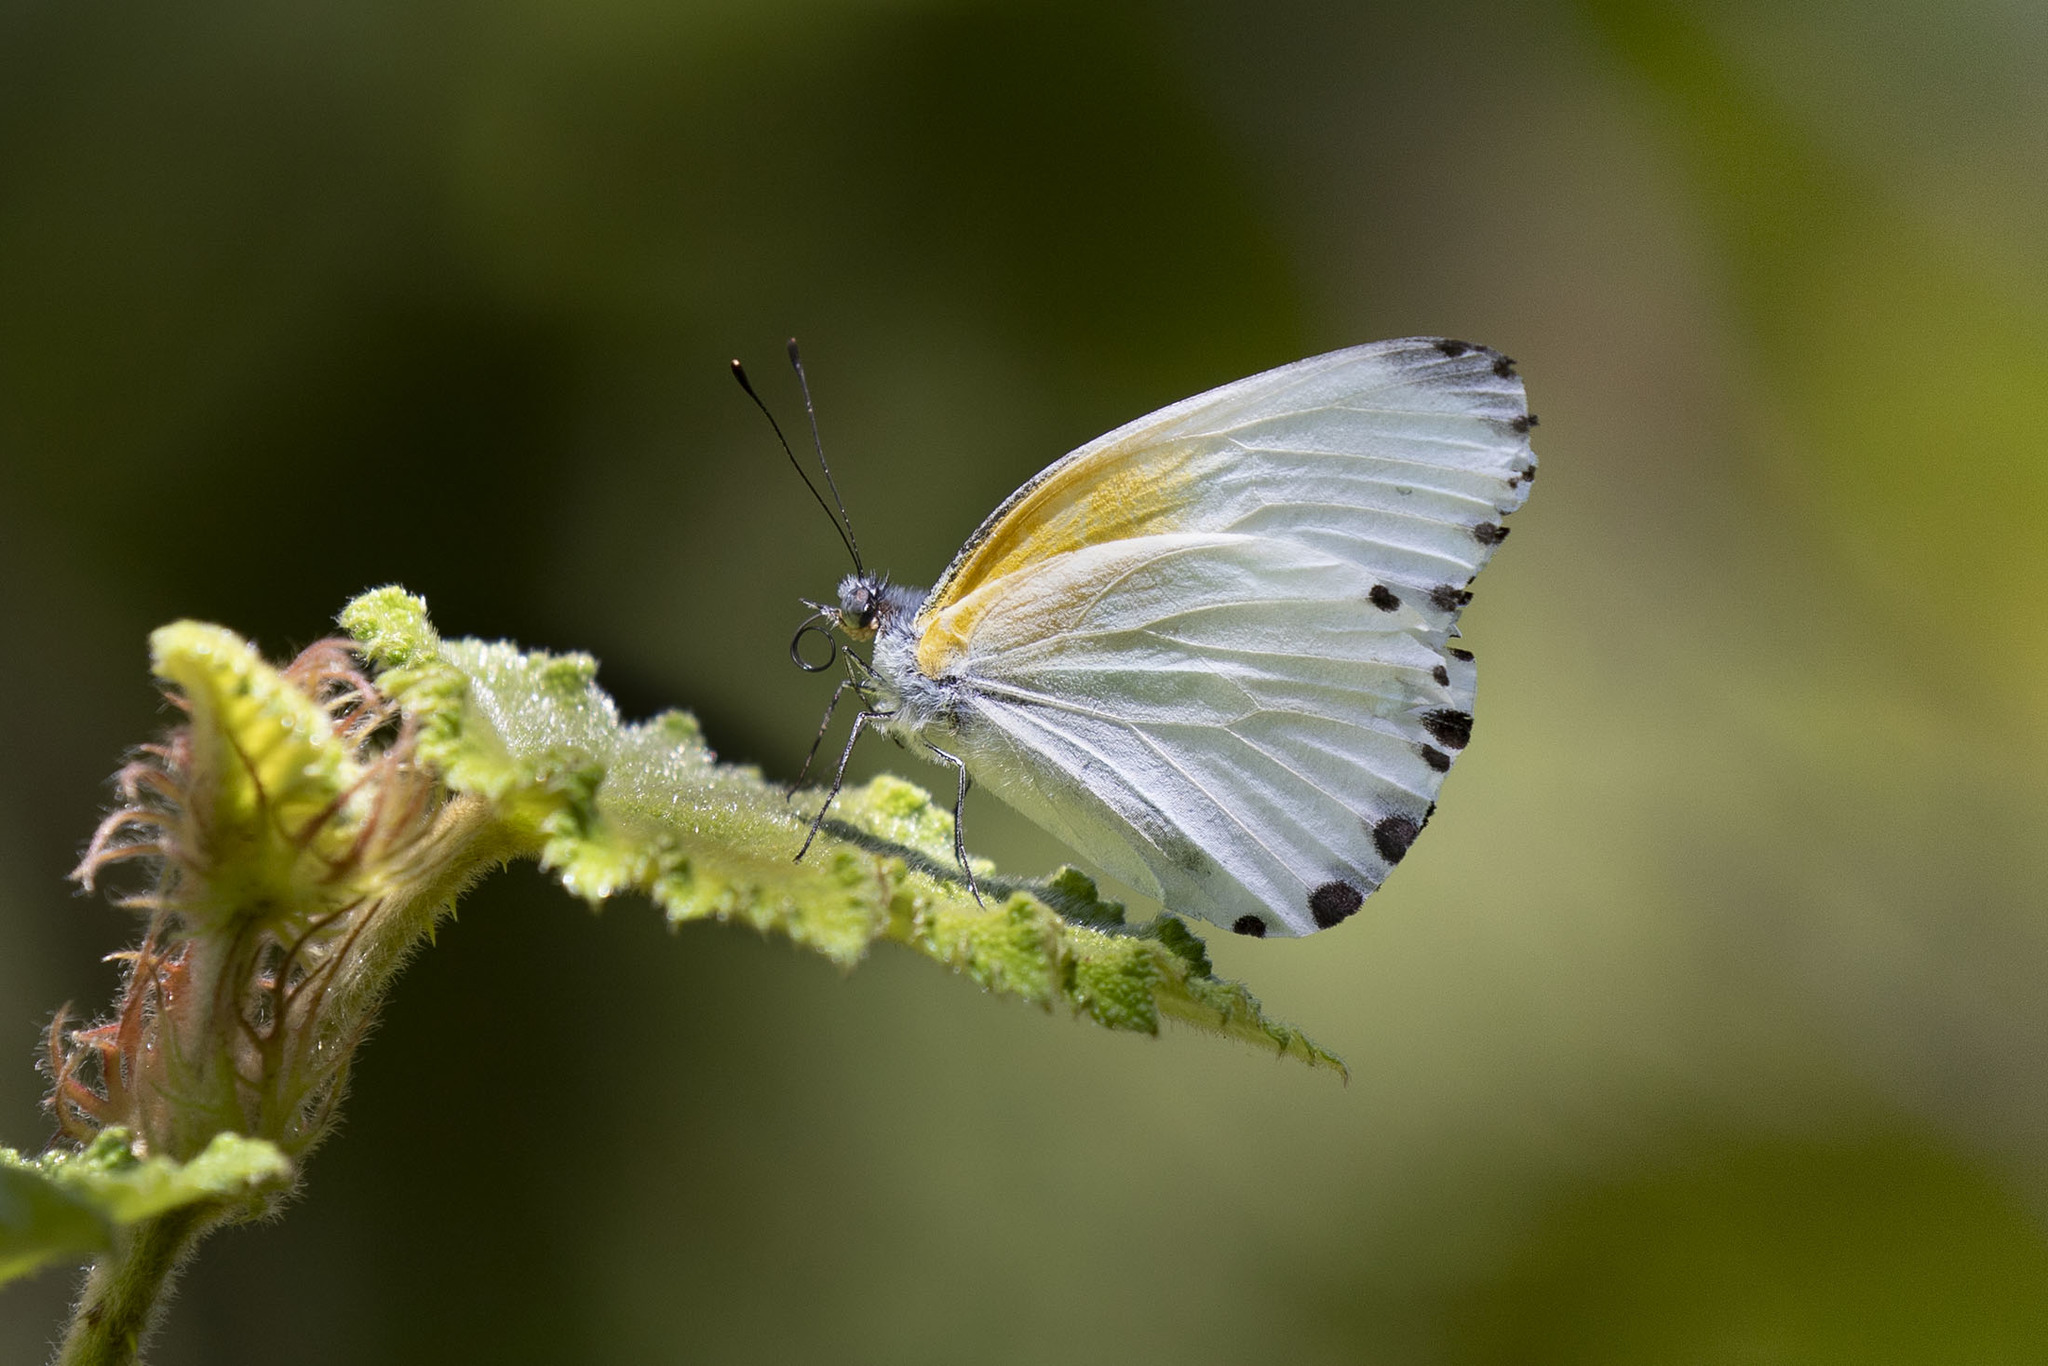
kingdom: Animalia
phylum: Arthropoda
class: Insecta
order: Lepidoptera
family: Pieridae
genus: Mylothris
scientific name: Mylothris phileris
